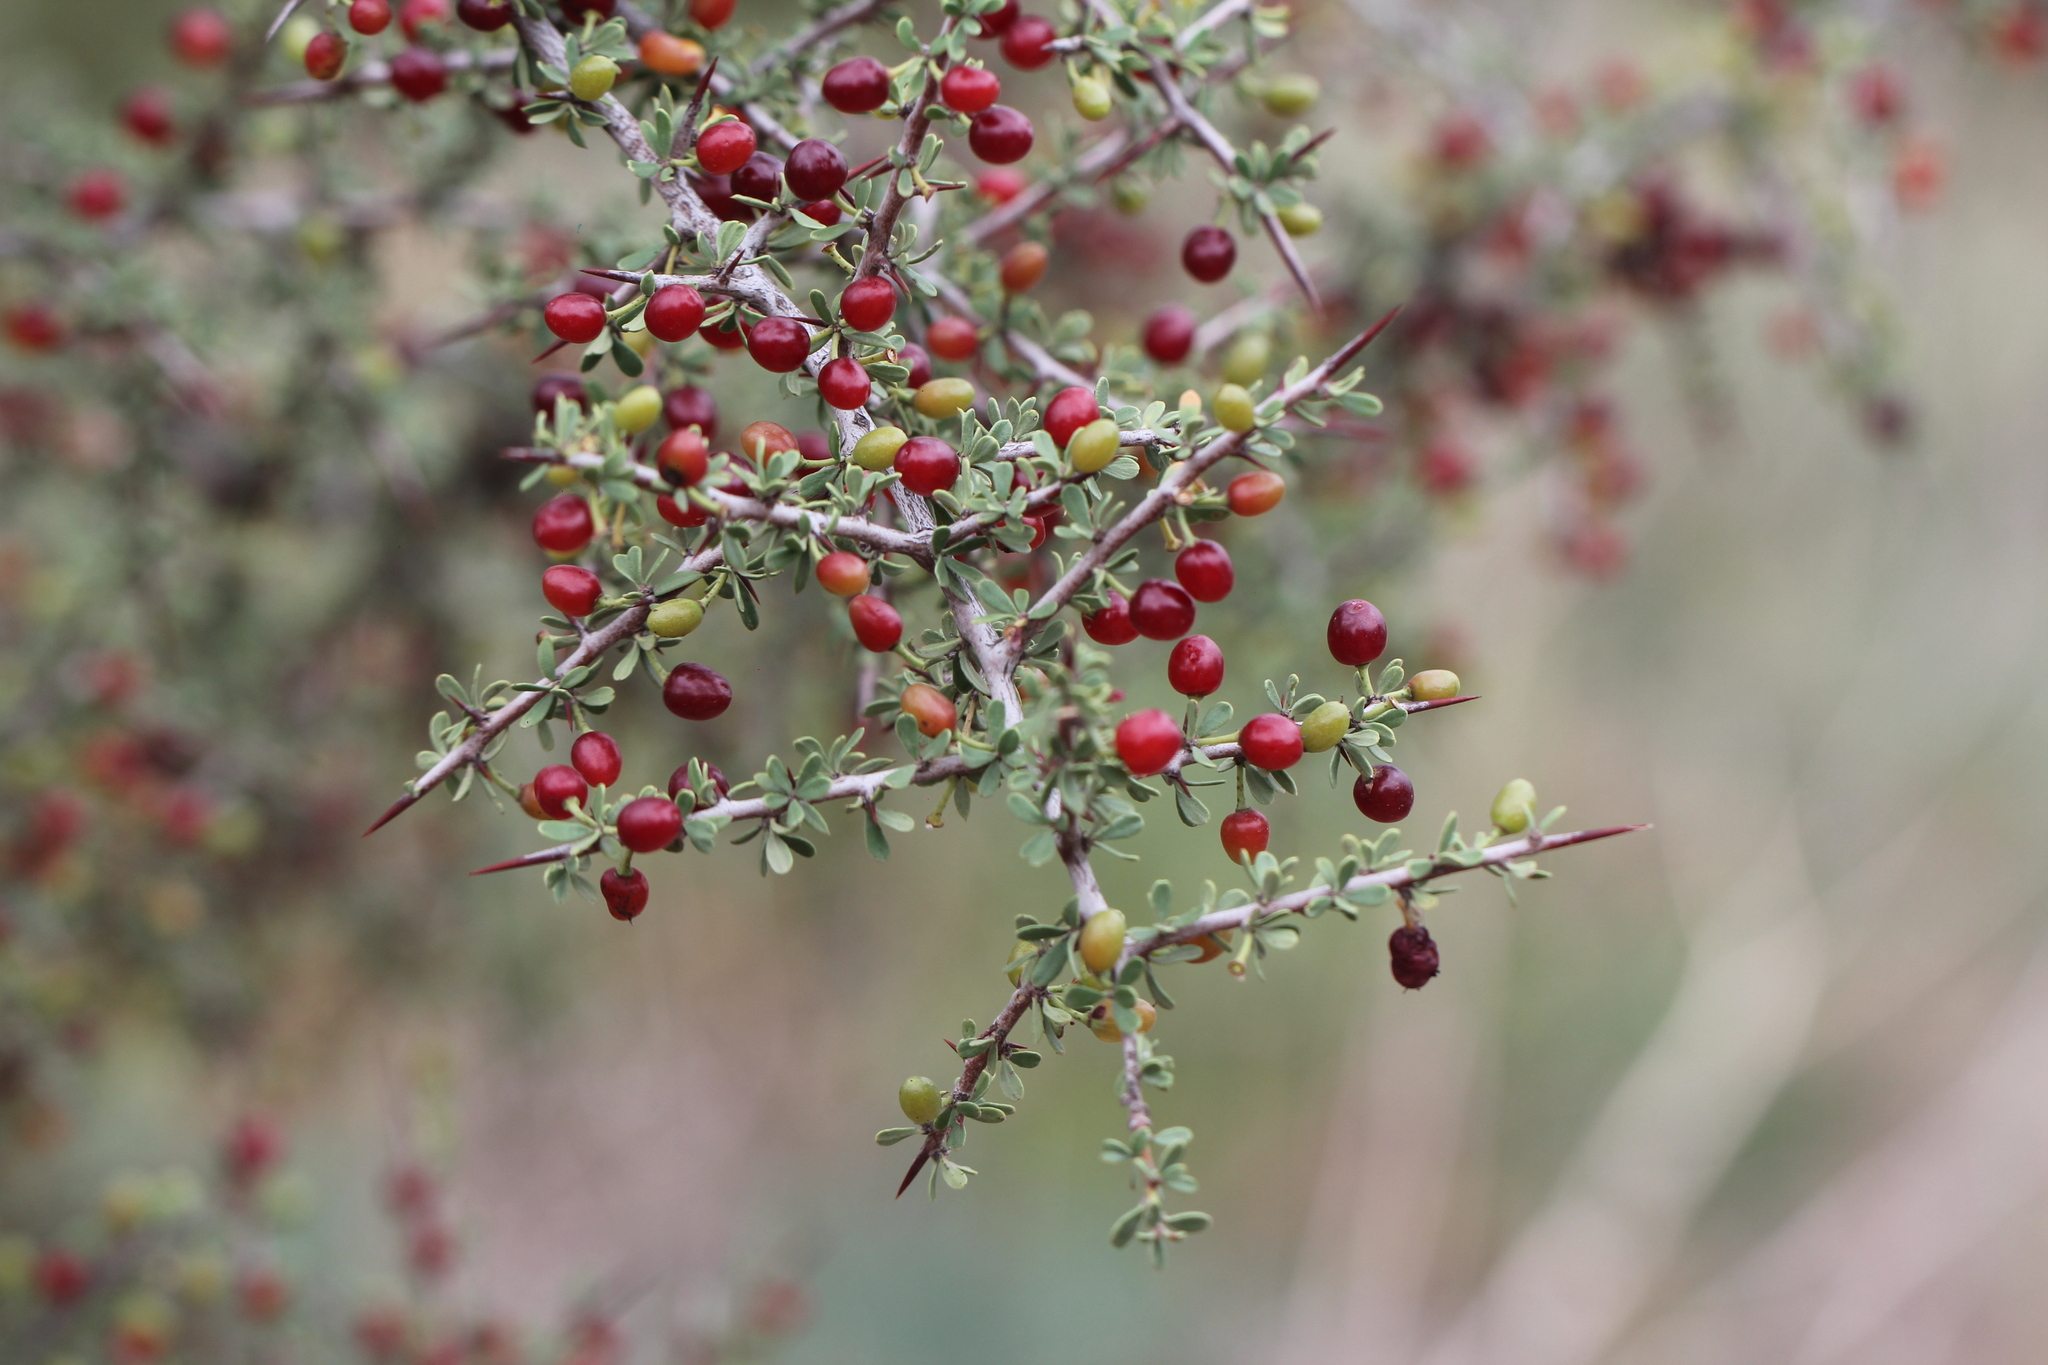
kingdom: Plantae
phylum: Tracheophyta
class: Magnoliopsida
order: Rosales
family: Rhamnaceae
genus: Condalia
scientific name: Condalia microphylla
